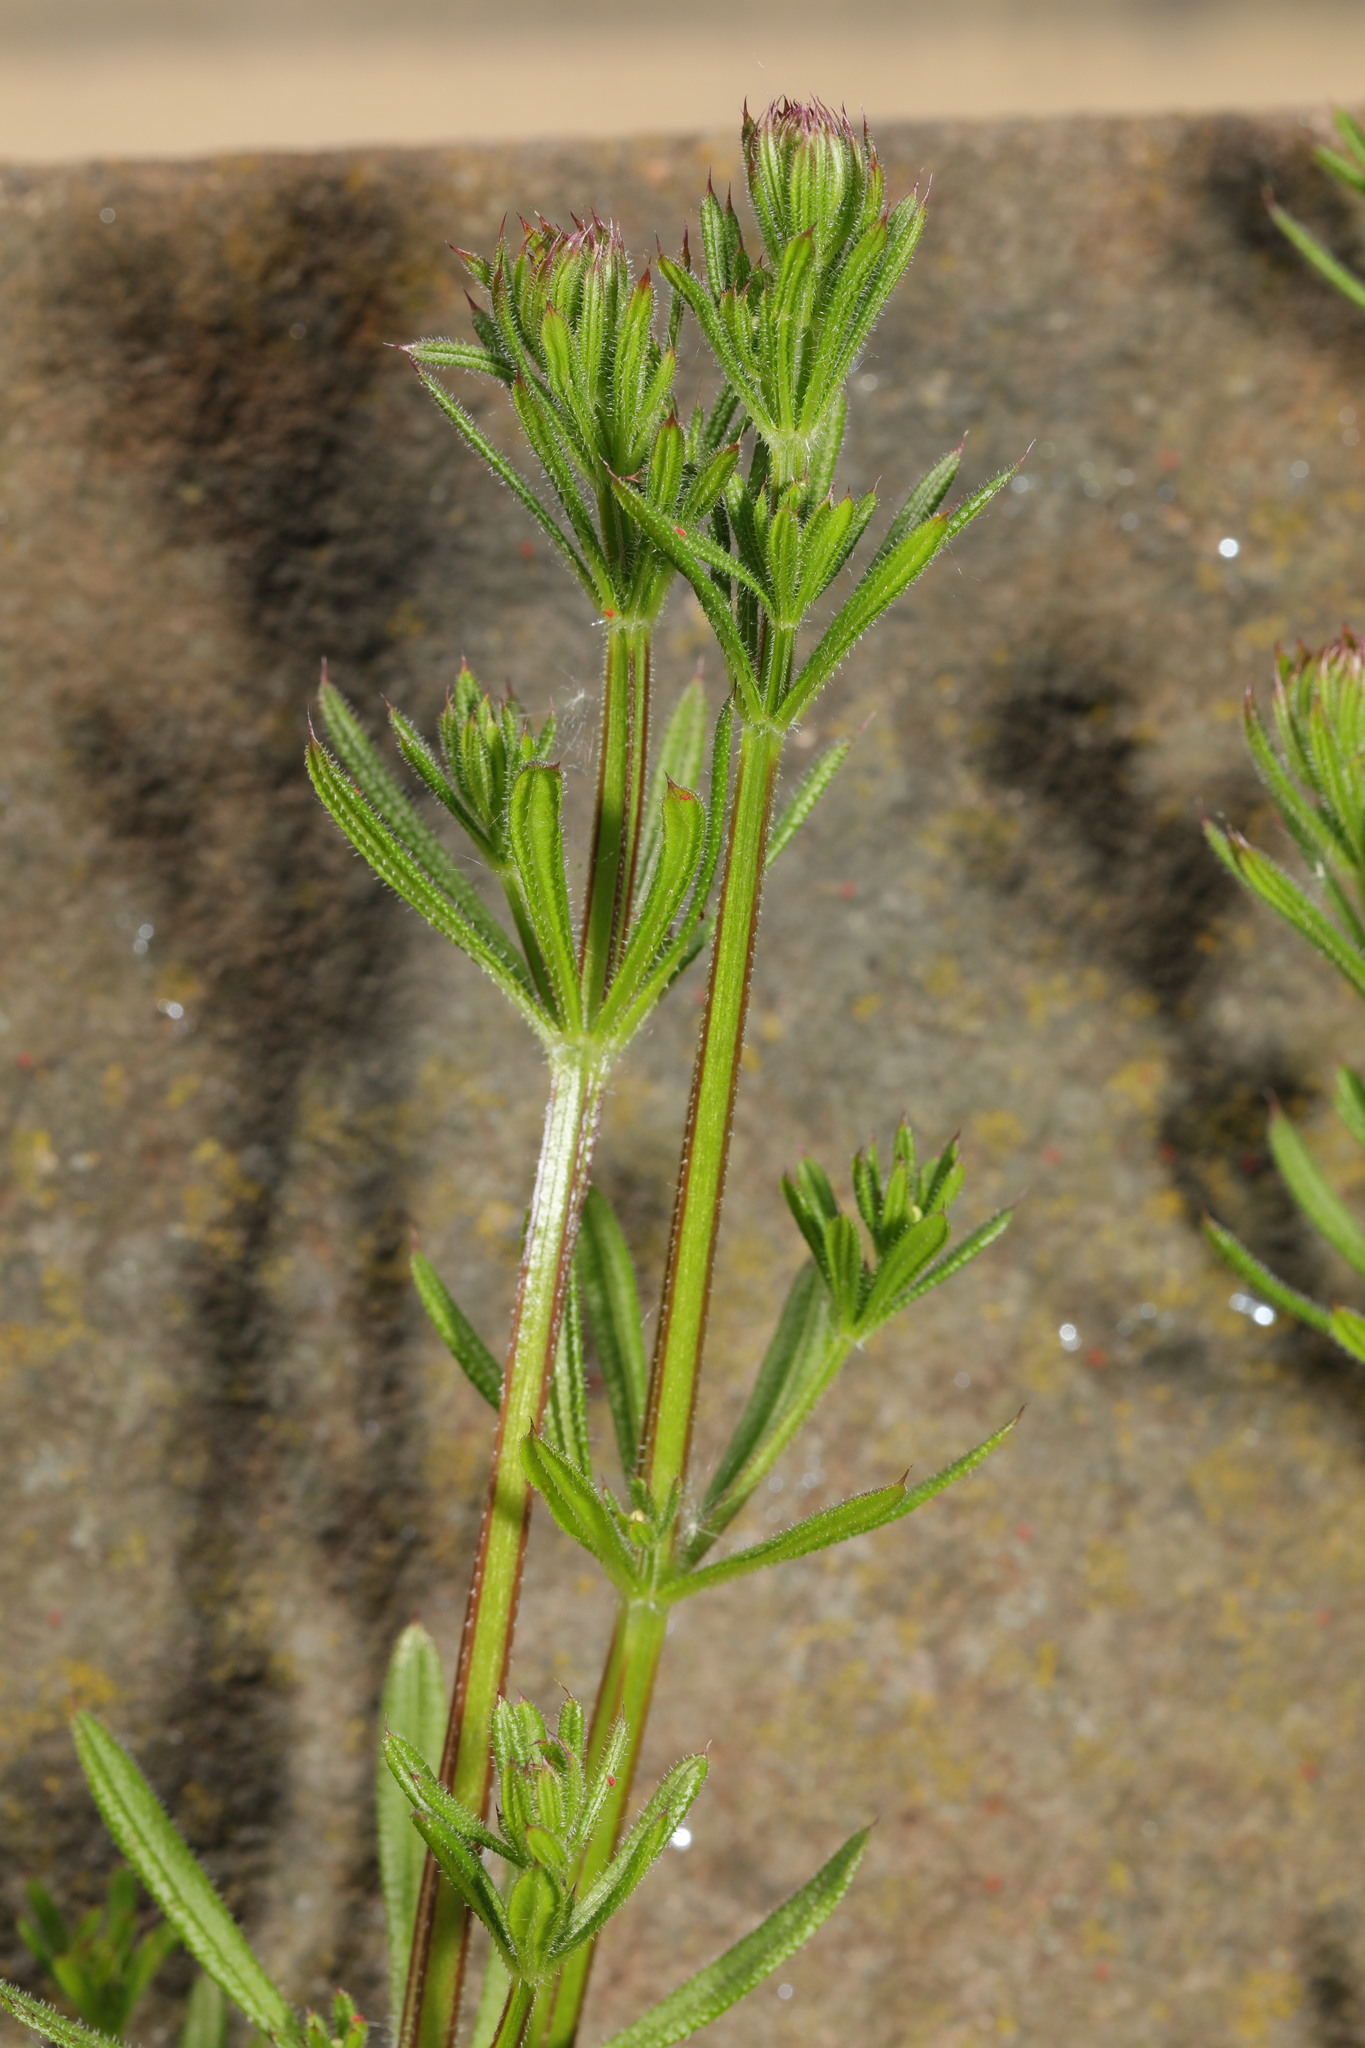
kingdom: Plantae
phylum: Tracheophyta
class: Magnoliopsida
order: Gentianales
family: Rubiaceae
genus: Galium
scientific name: Galium aparine
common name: Cleavers
